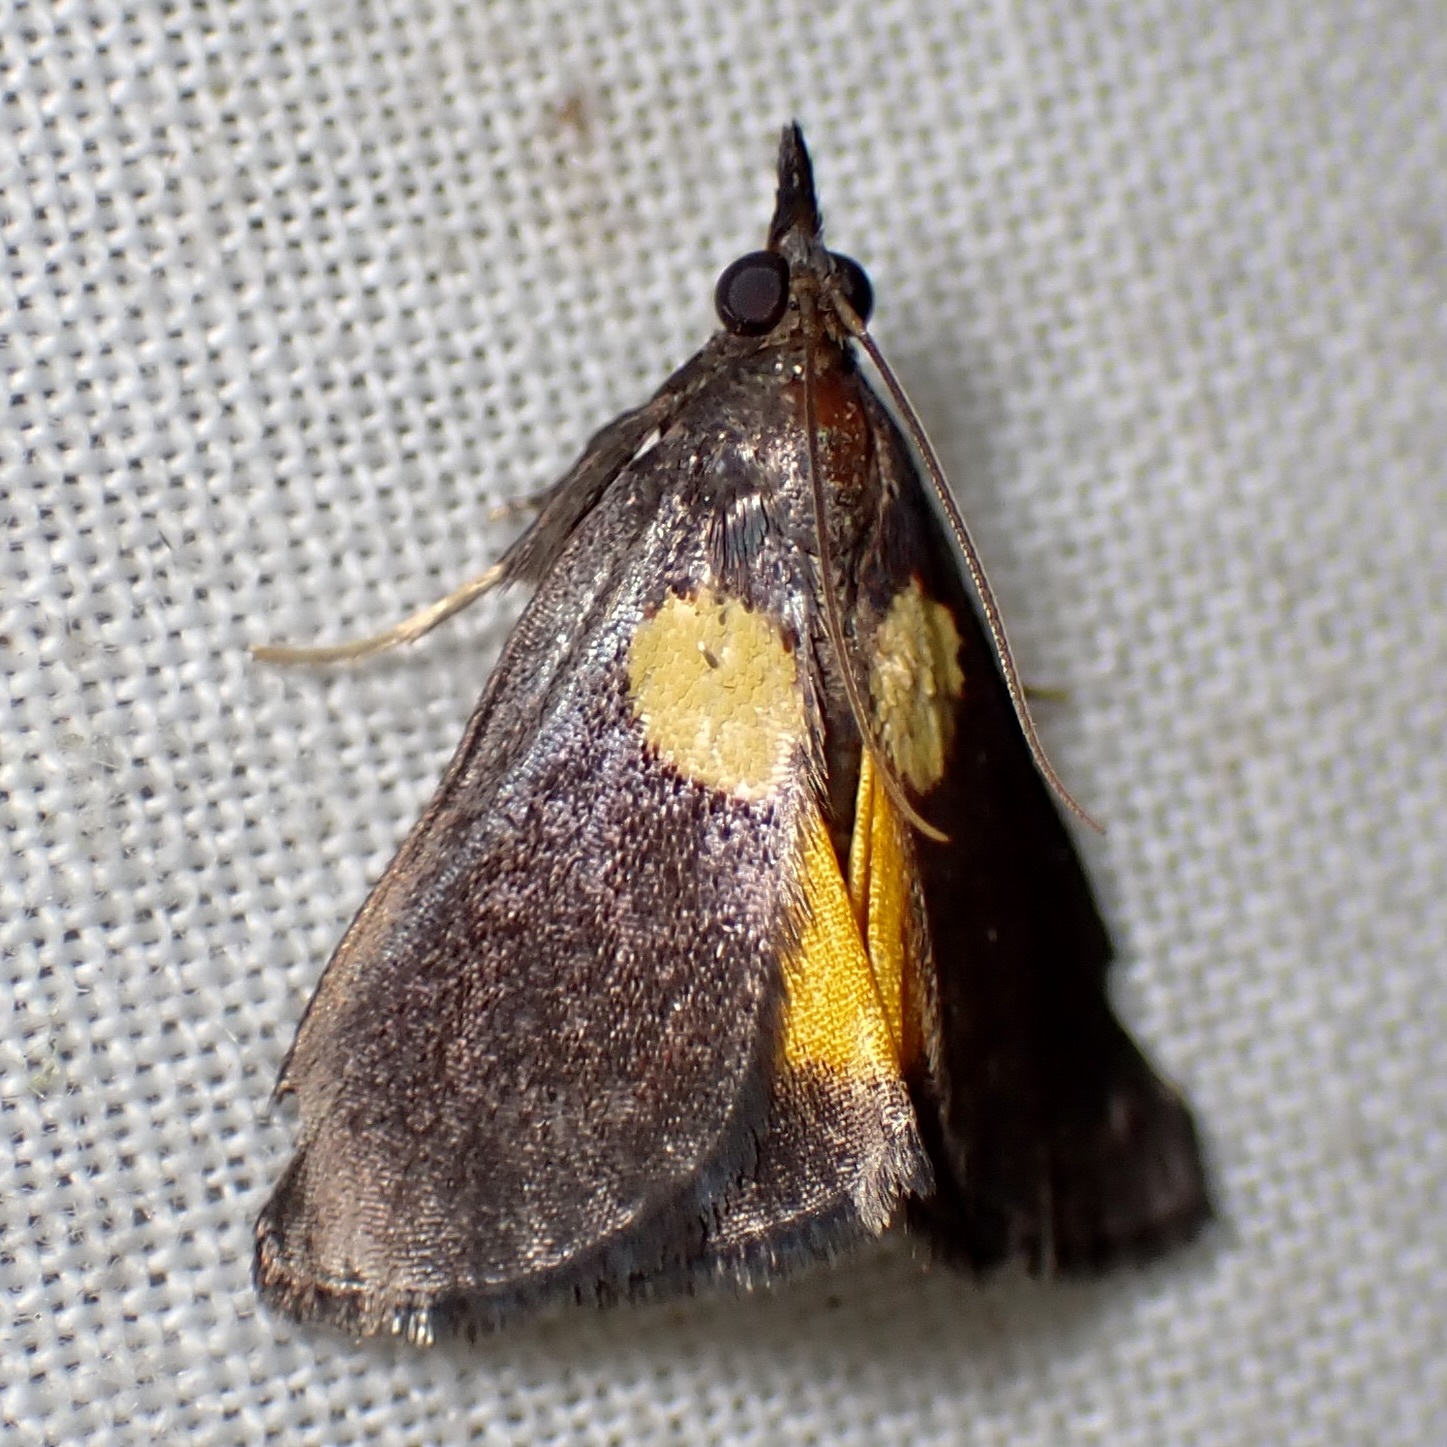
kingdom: Animalia
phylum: Arthropoda
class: Insecta
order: Lepidoptera
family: Pyralidae
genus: Semnia
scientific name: Semnia auritalis
